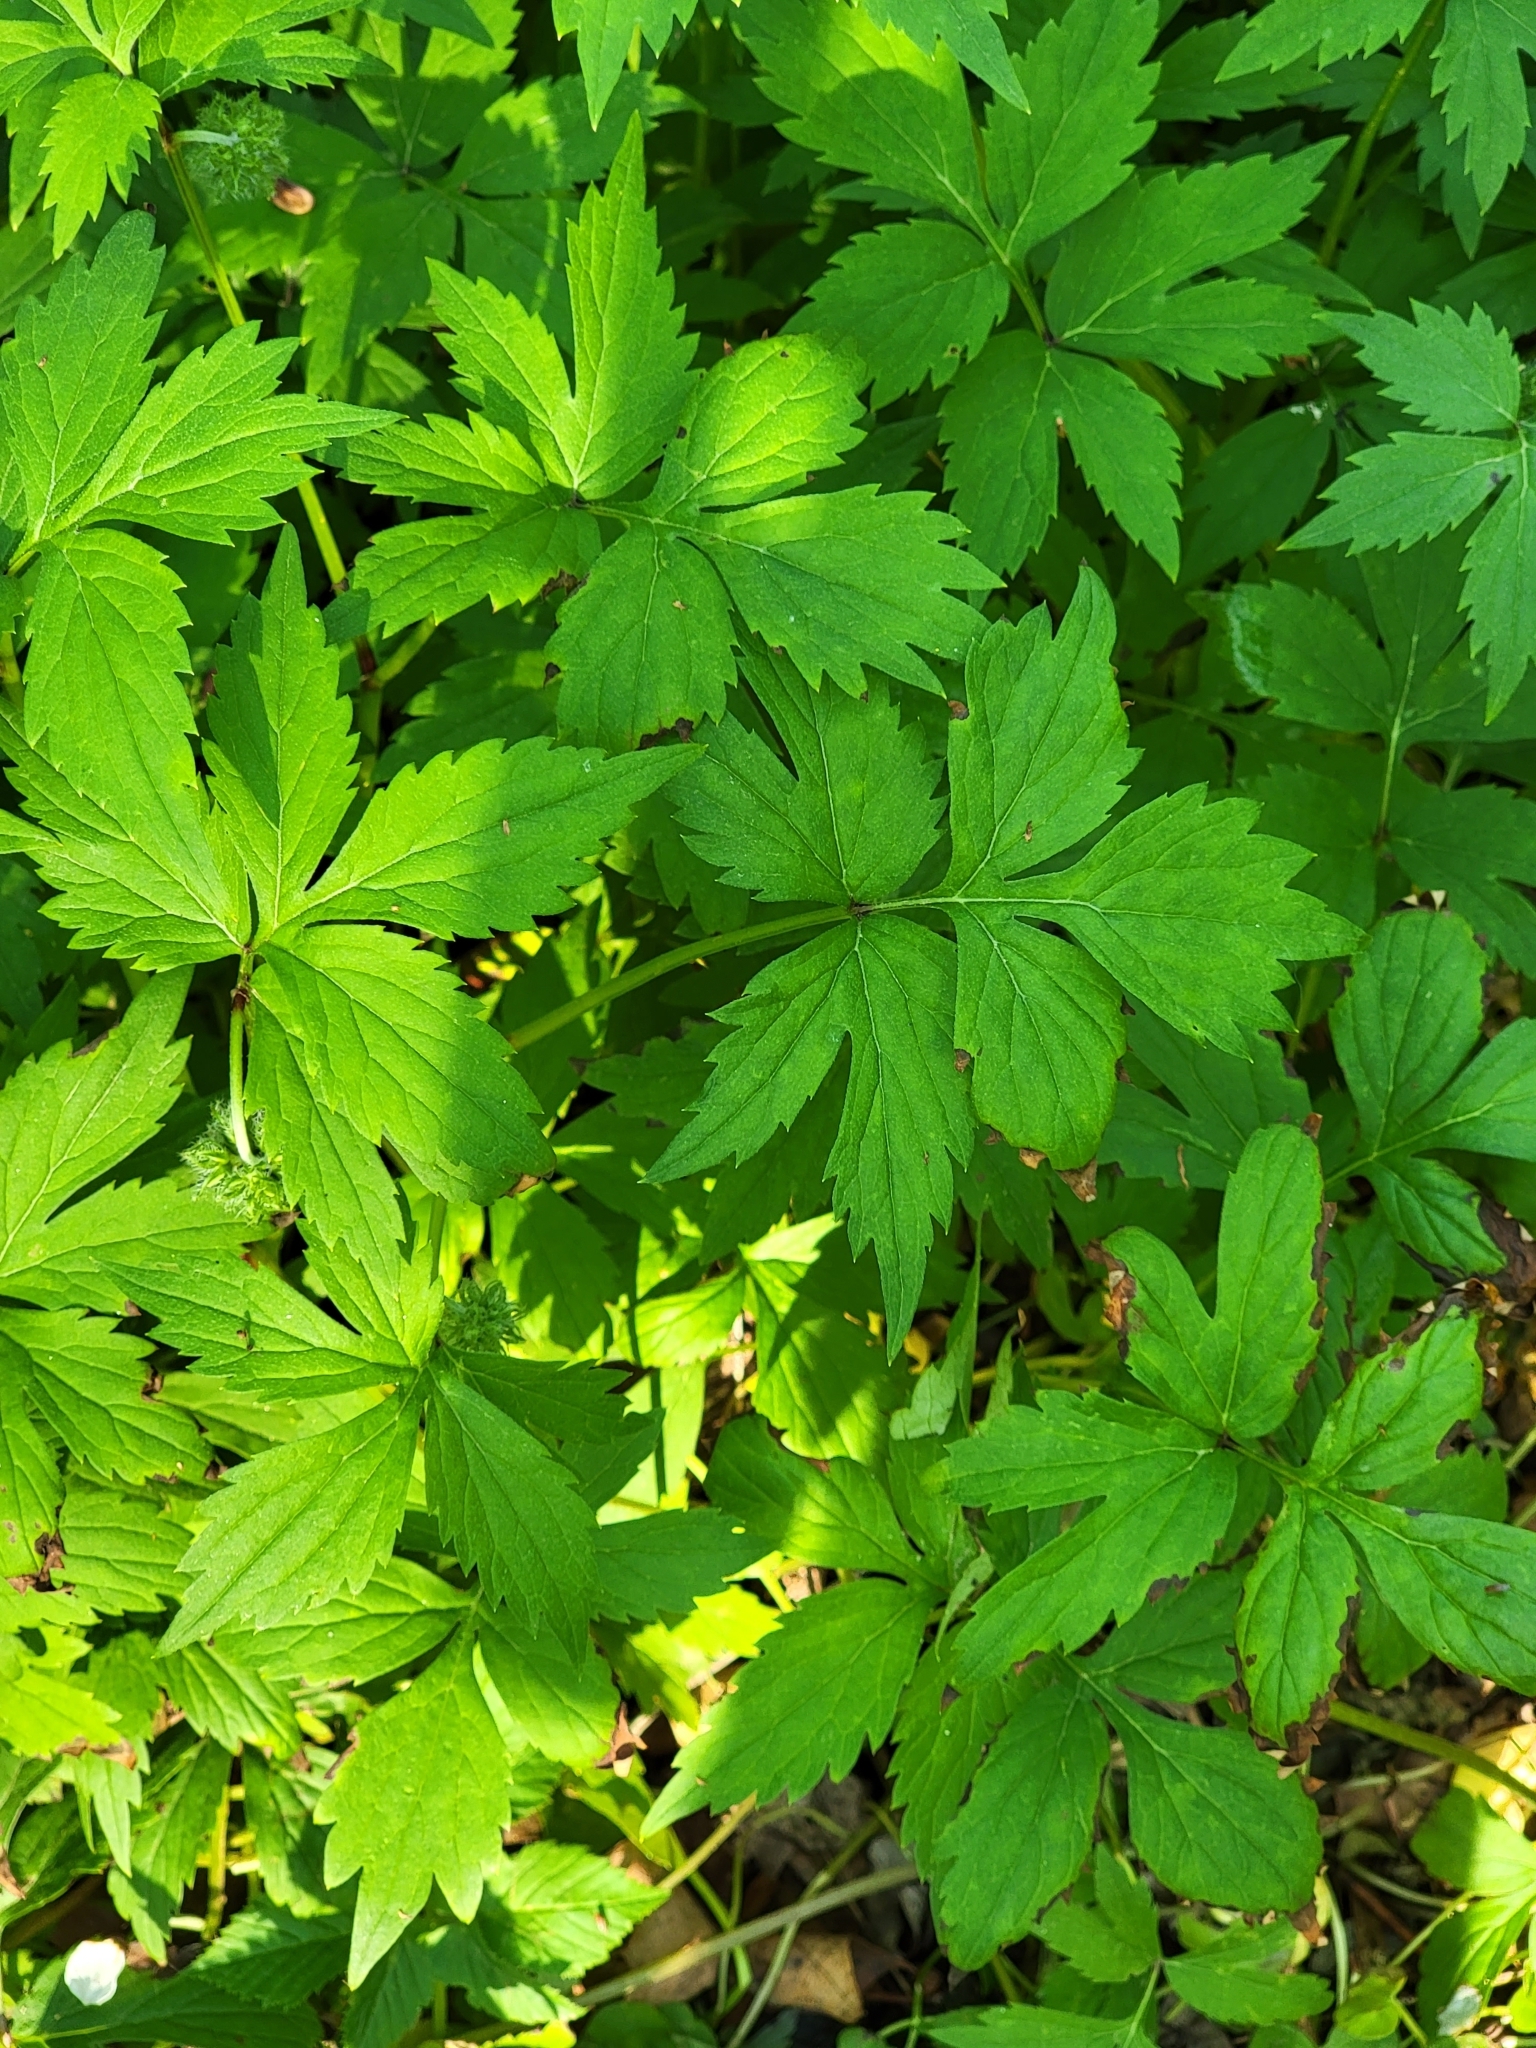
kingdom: Plantae
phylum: Tracheophyta
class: Magnoliopsida
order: Boraginales
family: Hydrophyllaceae
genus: Hydrophyllum
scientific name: Hydrophyllum virginianum
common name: Virginia waterleaf
